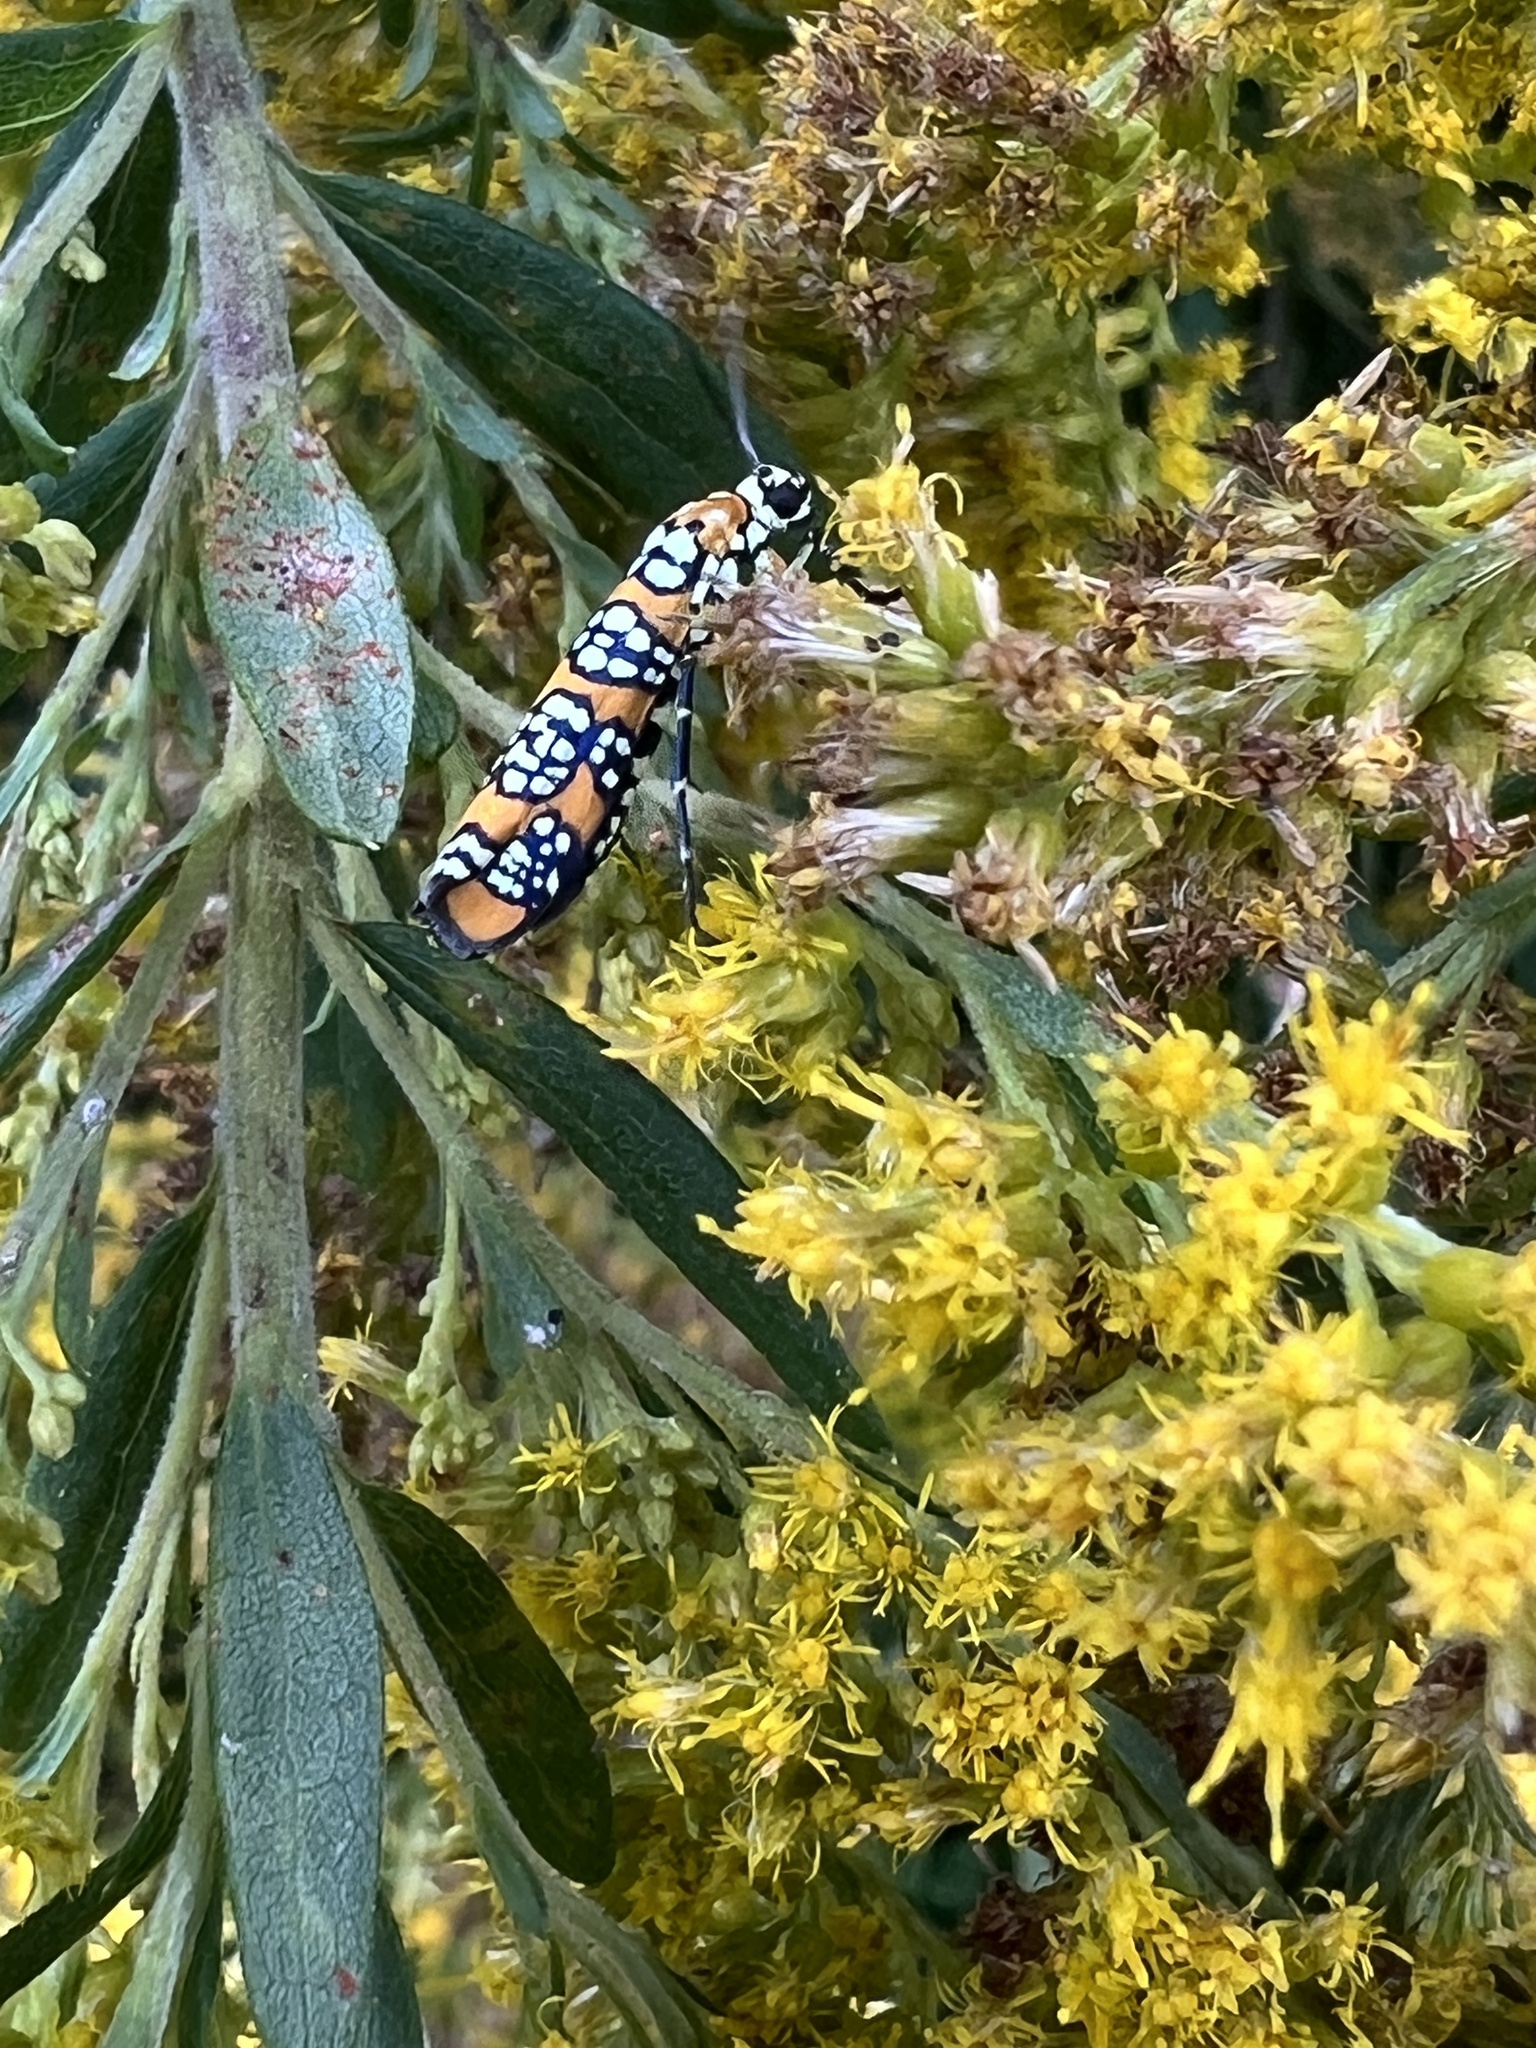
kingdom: Animalia
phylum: Arthropoda
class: Insecta
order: Lepidoptera
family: Attevidae
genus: Atteva
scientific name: Atteva punctella
